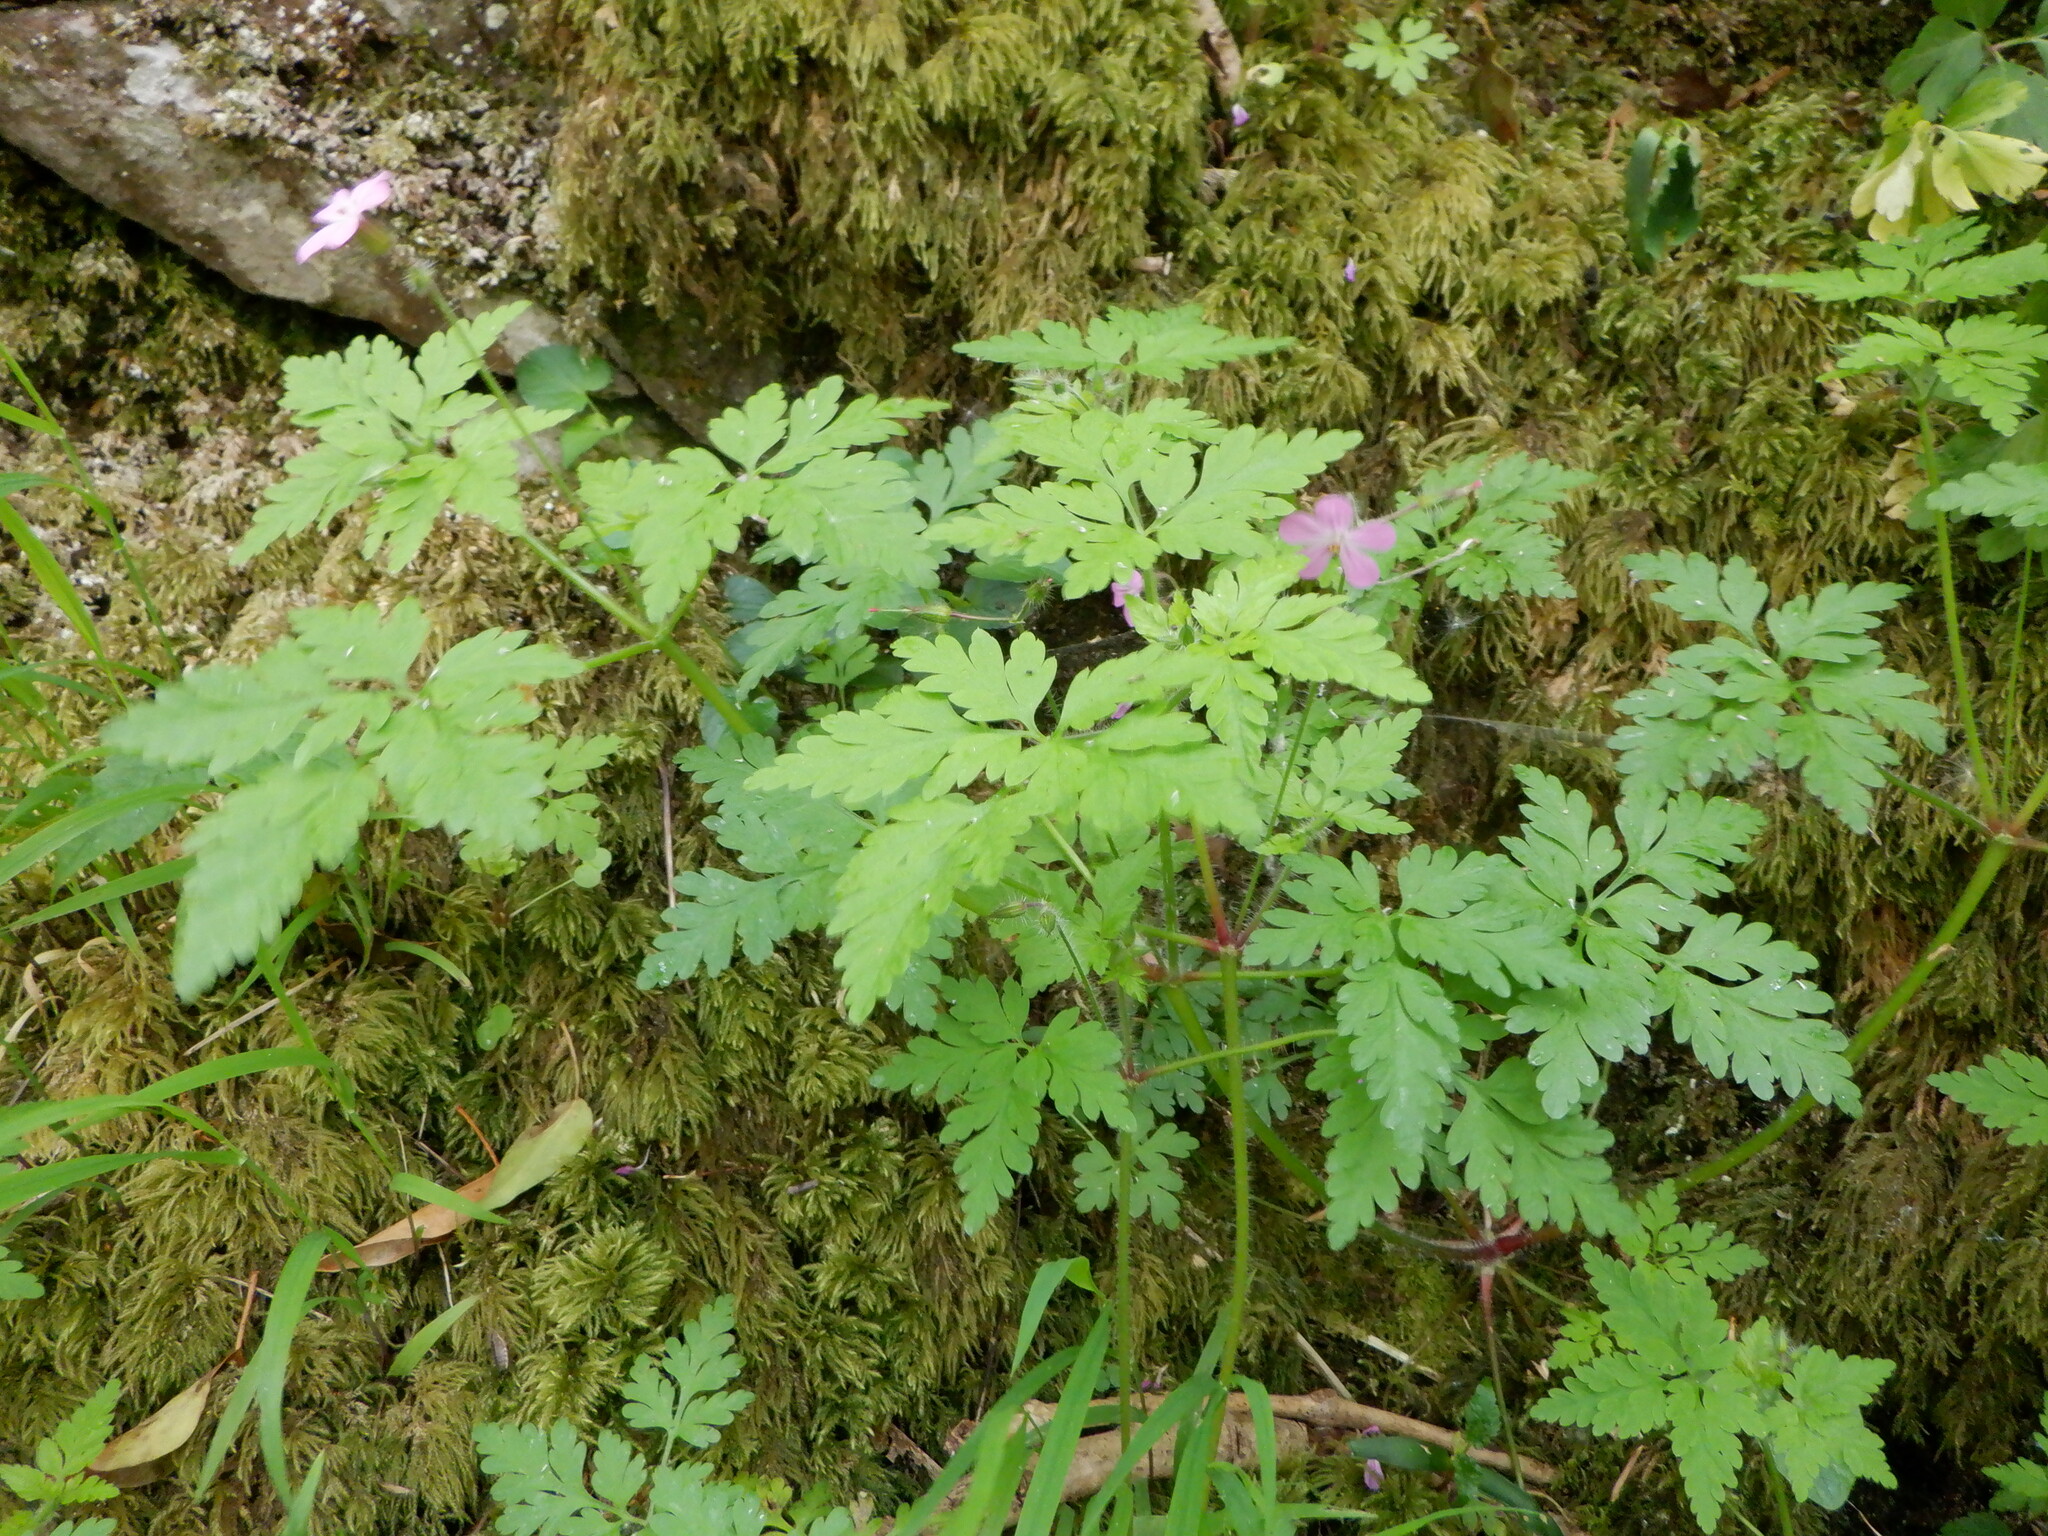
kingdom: Plantae
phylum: Tracheophyta
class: Magnoliopsida
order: Geraniales
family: Geraniaceae
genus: Geranium
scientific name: Geranium robertianum
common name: Herb-robert
